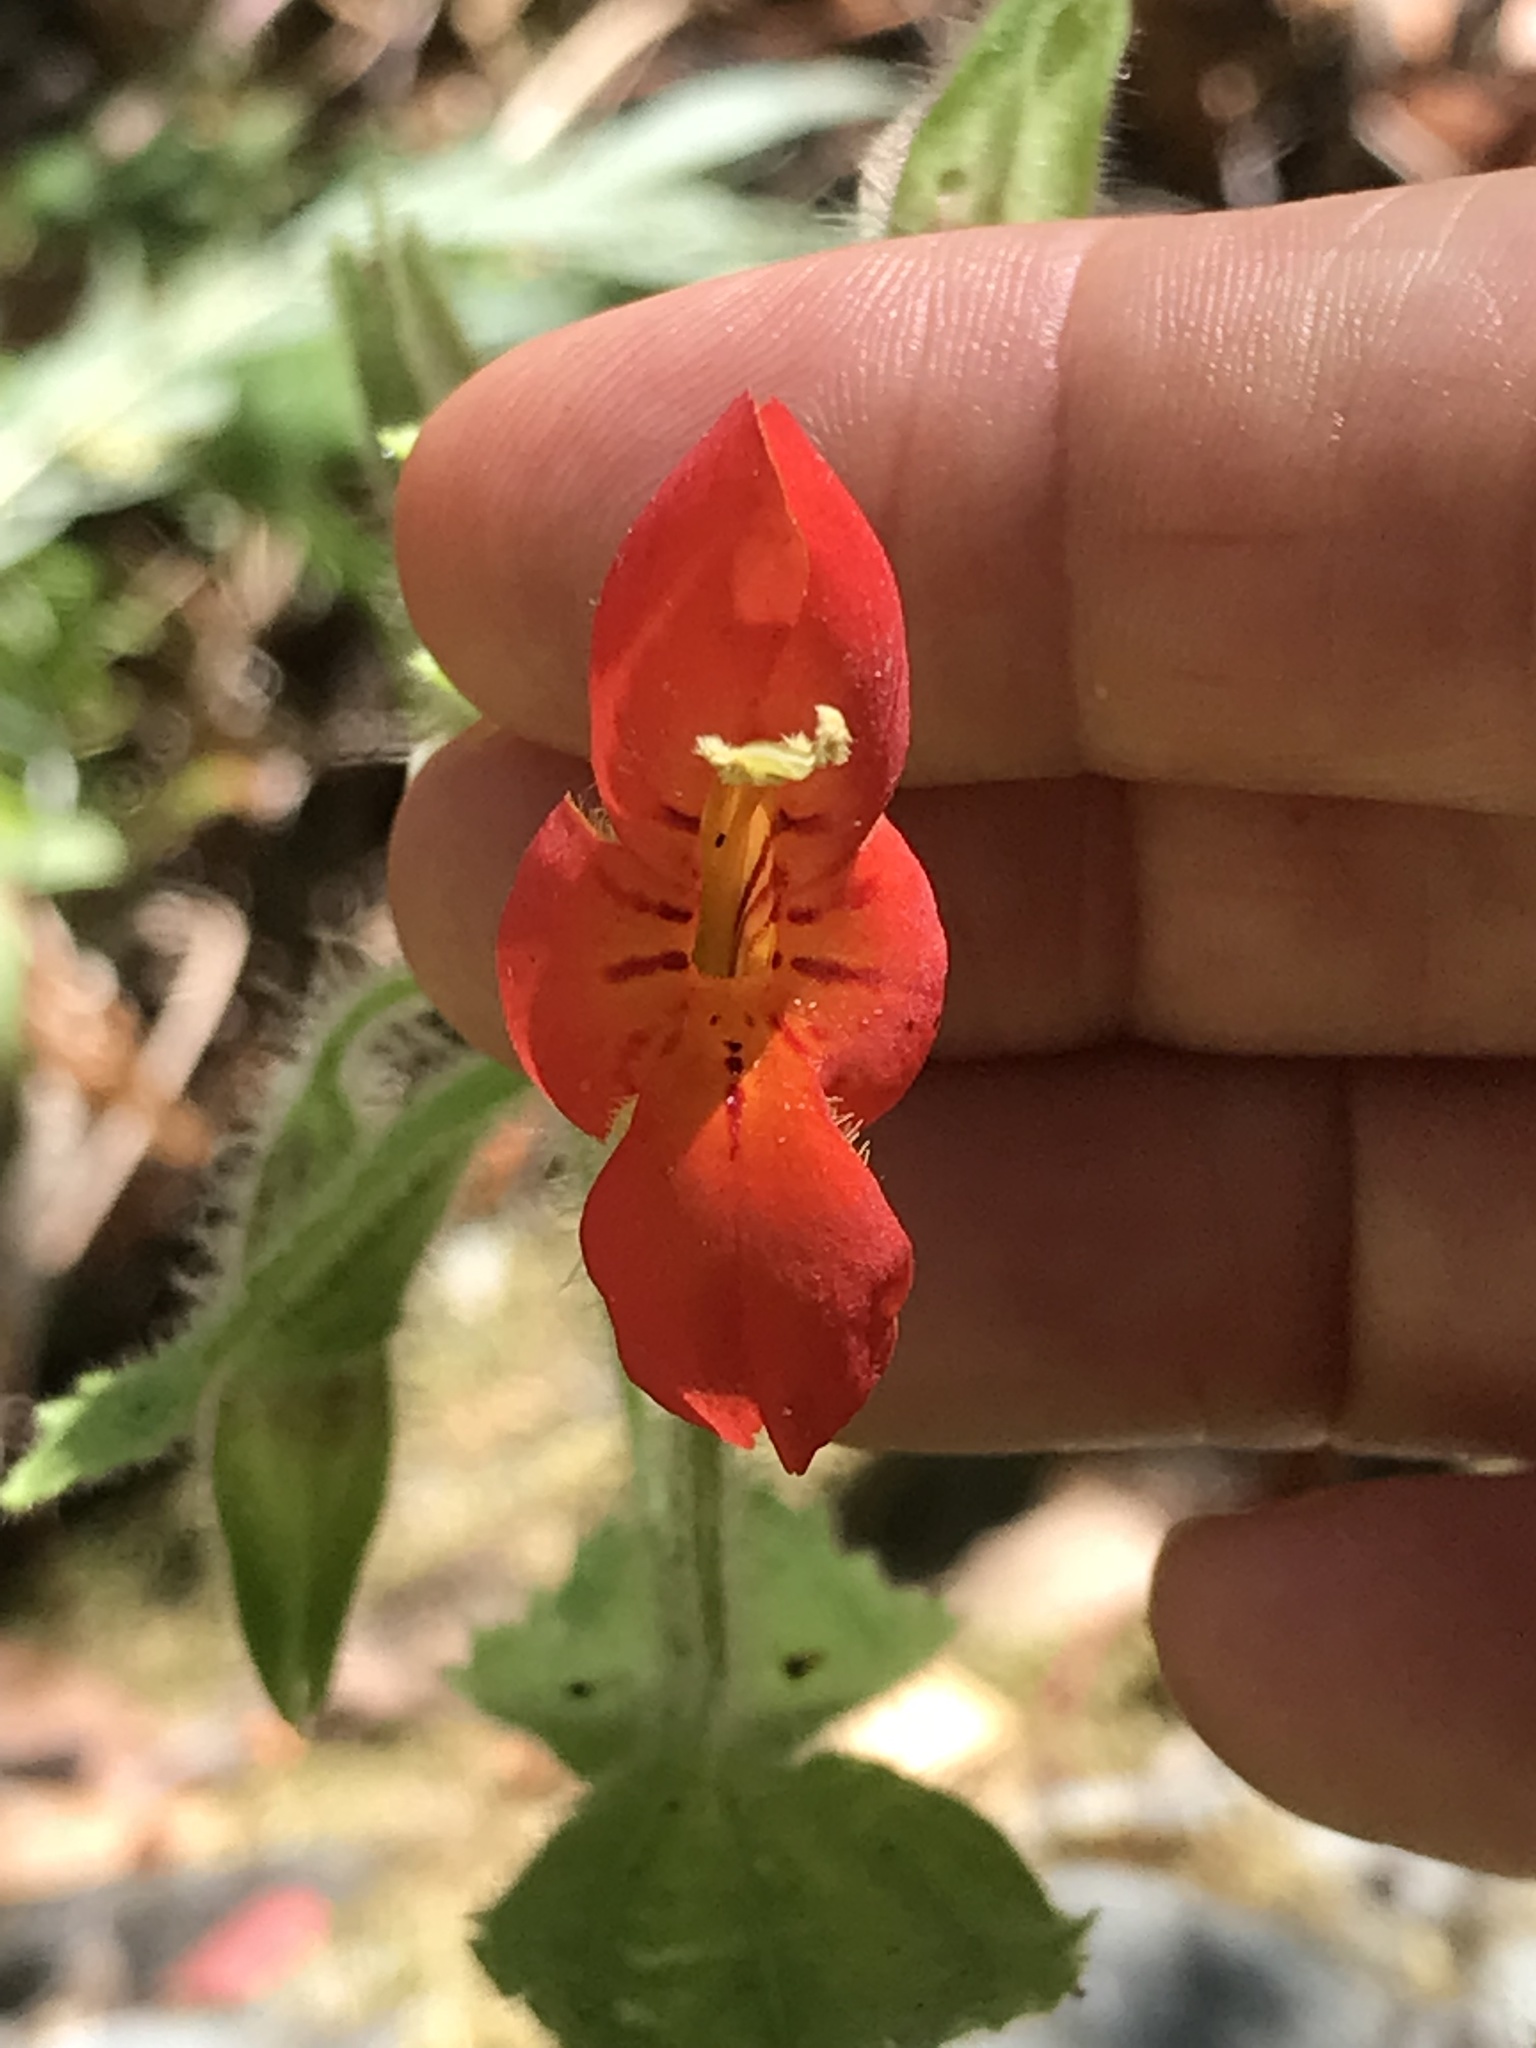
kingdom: Plantae
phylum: Tracheophyta
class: Magnoliopsida
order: Lamiales
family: Phrymaceae
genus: Erythranthe
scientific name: Erythranthe cardinalis
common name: Scarlet monkey-flower
